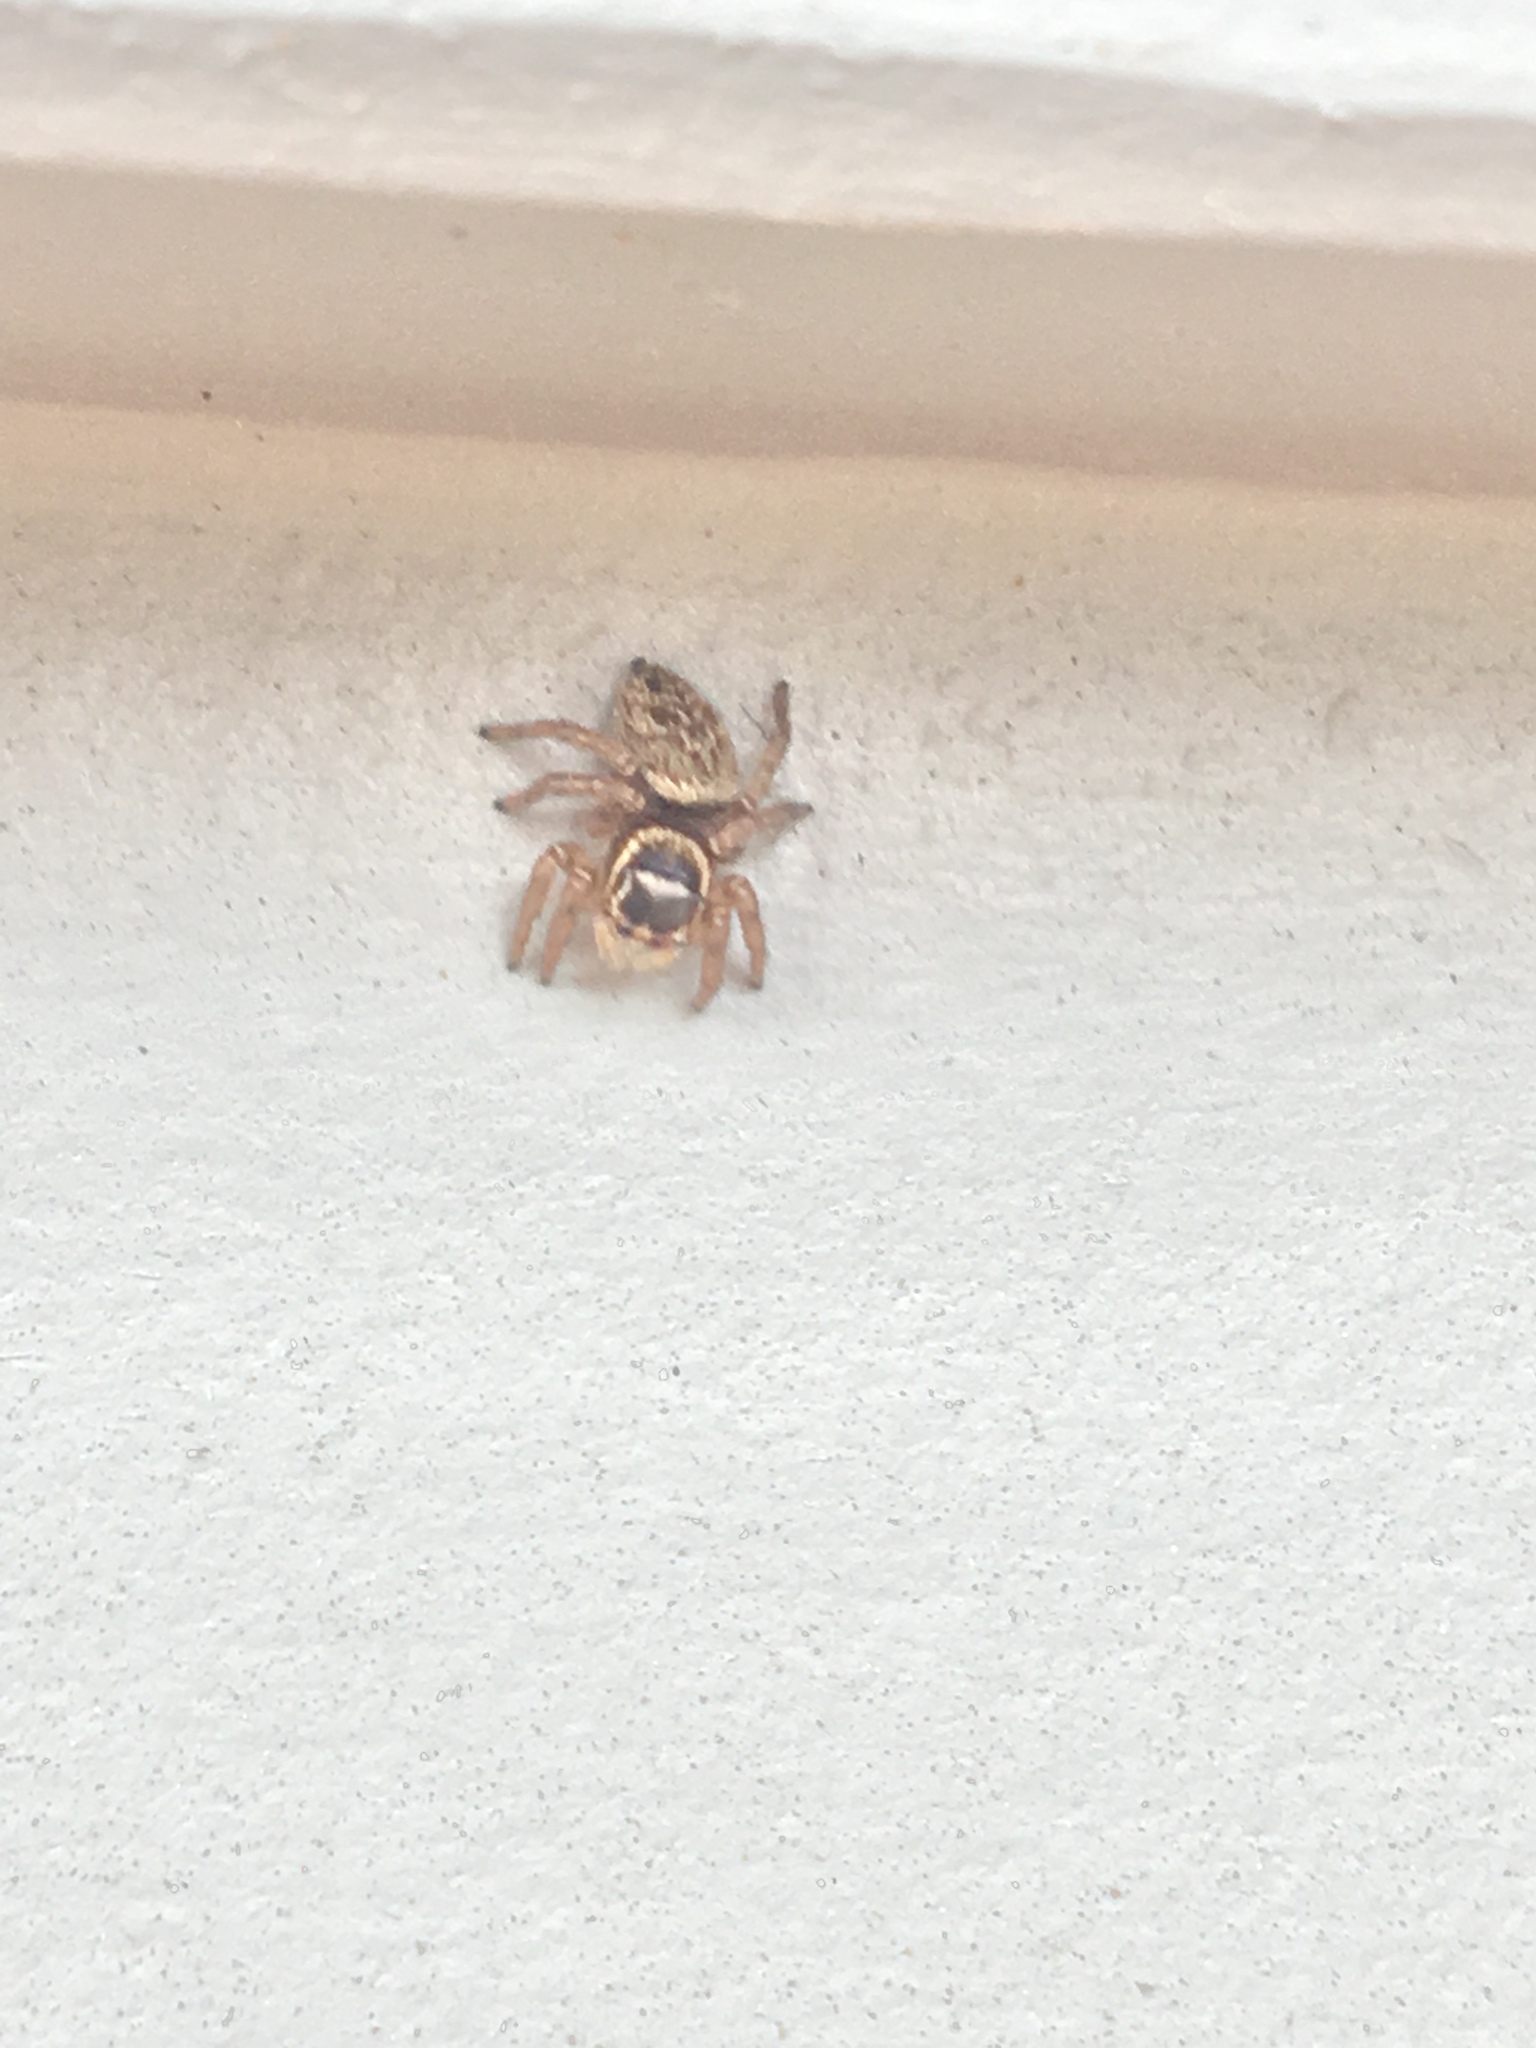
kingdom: Animalia
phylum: Arthropoda
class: Arachnida
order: Araneae
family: Salticidae
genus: Maratus
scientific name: Maratus griseus
